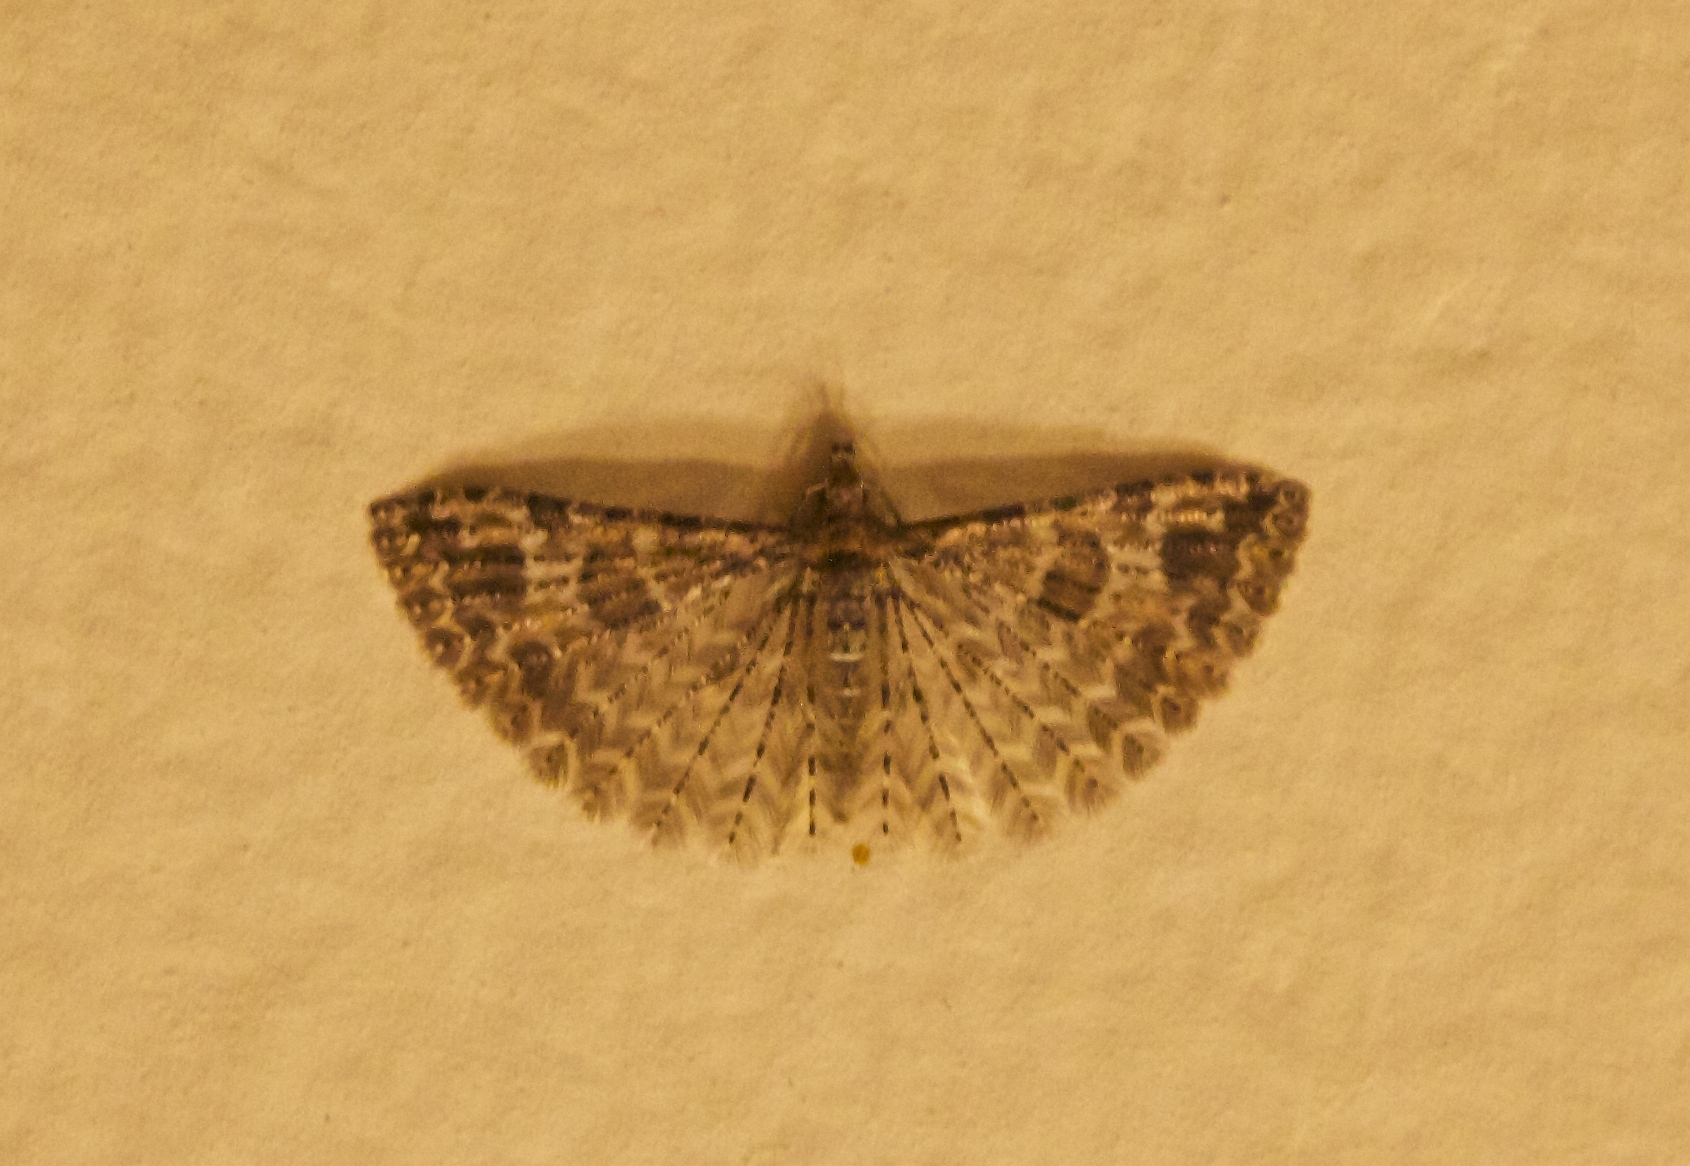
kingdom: Animalia
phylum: Arthropoda
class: Insecta
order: Lepidoptera
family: Alucitidae
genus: Alucita
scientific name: Alucita montana
